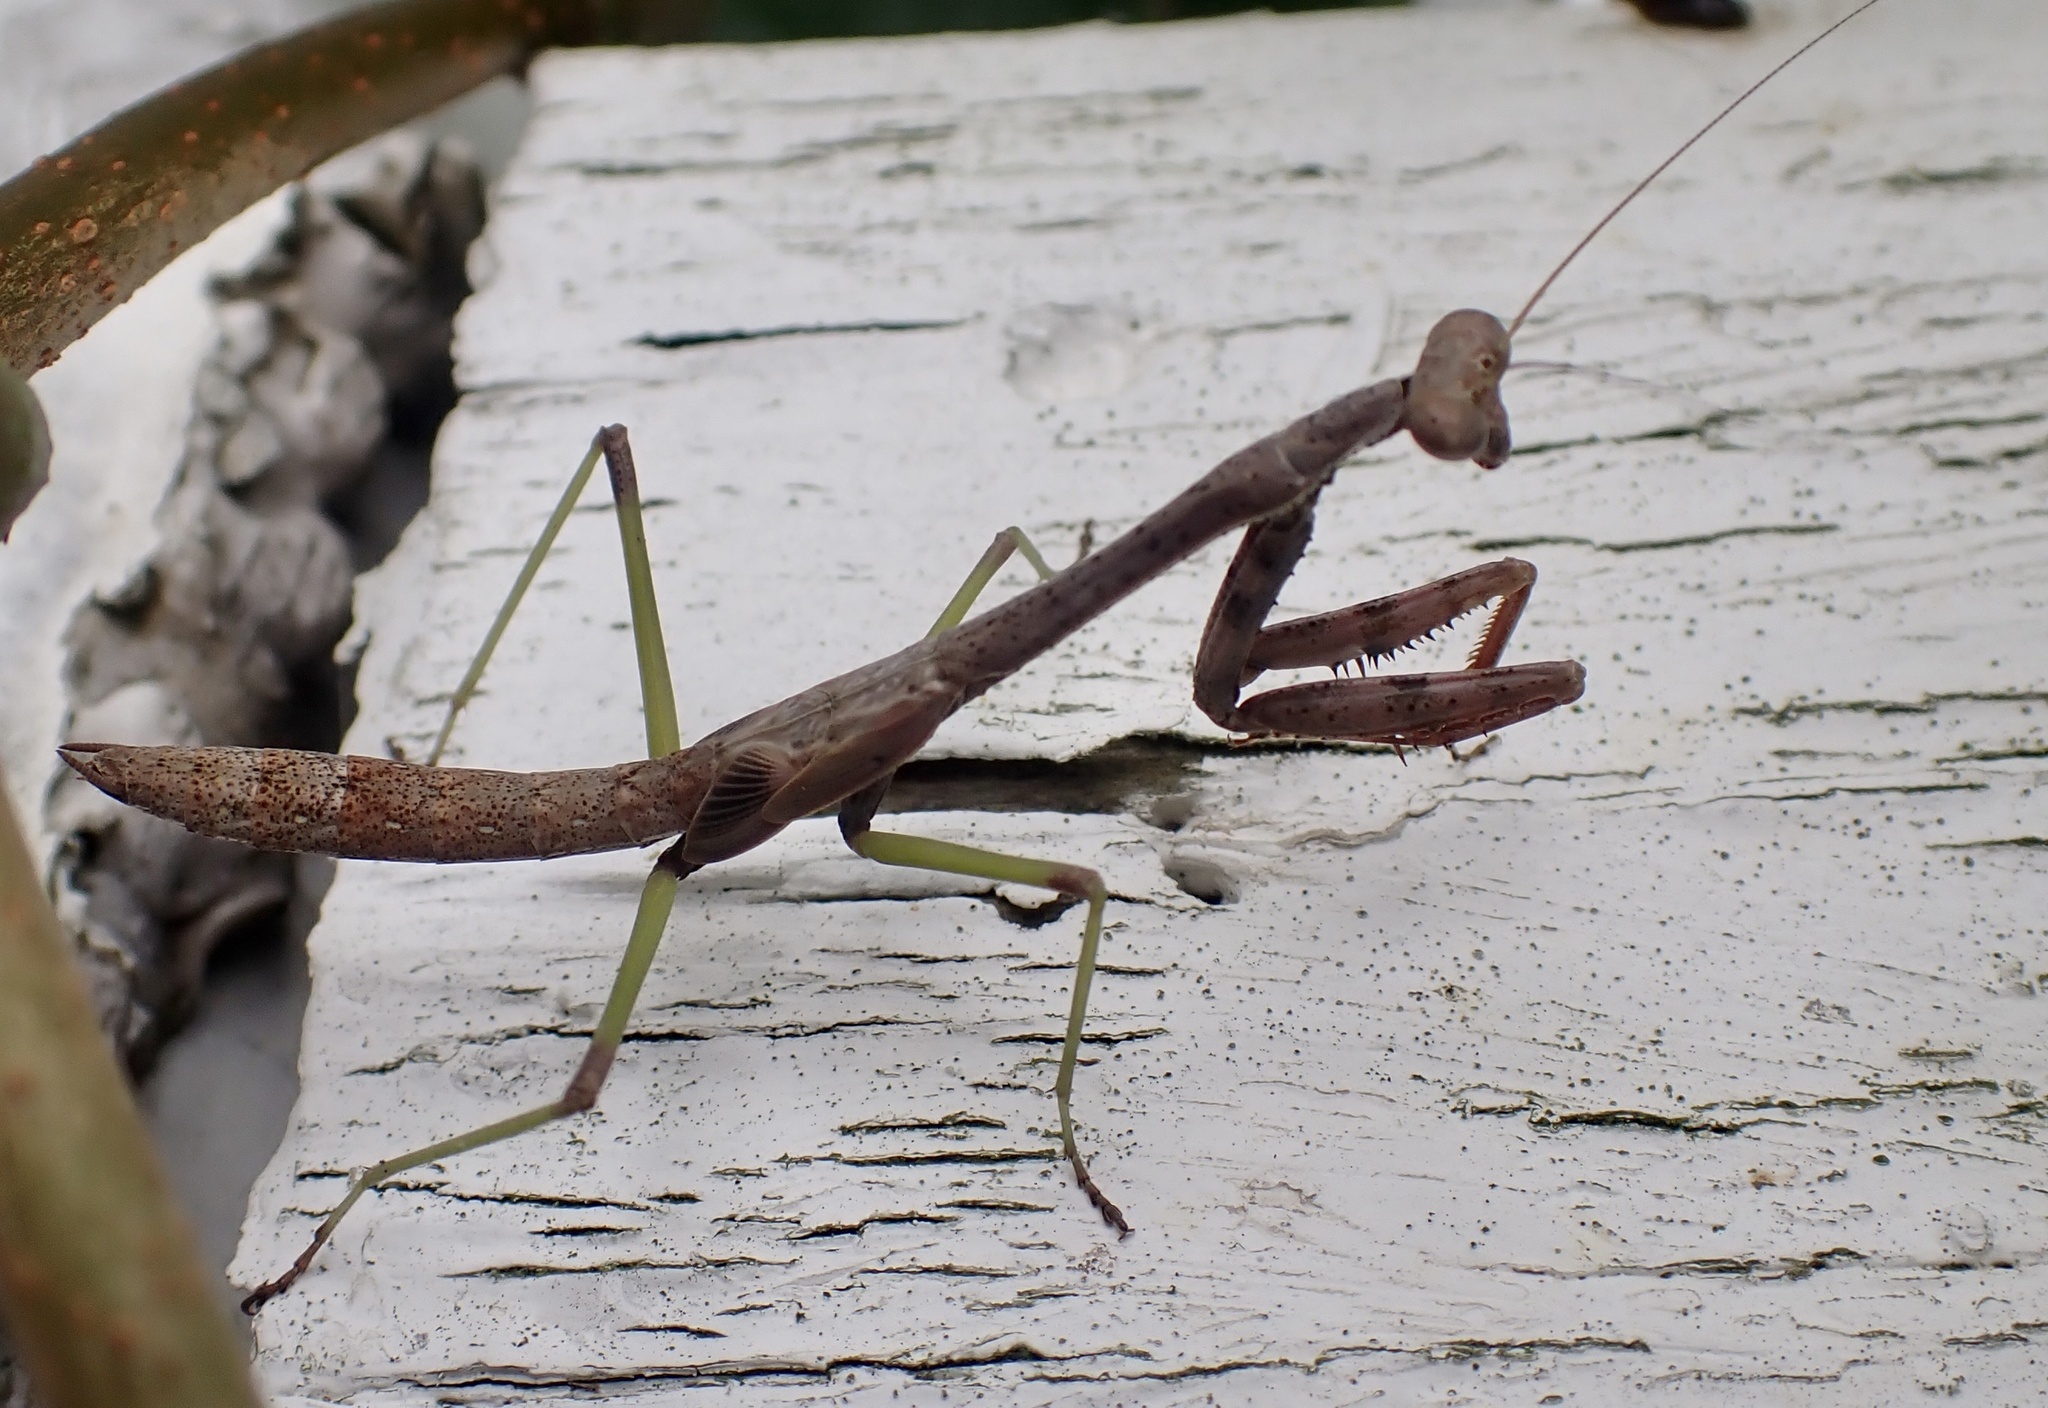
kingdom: Animalia
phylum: Arthropoda
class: Insecta
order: Mantodea
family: Mantidae
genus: Stagmomantis
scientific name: Stagmomantis carolina
